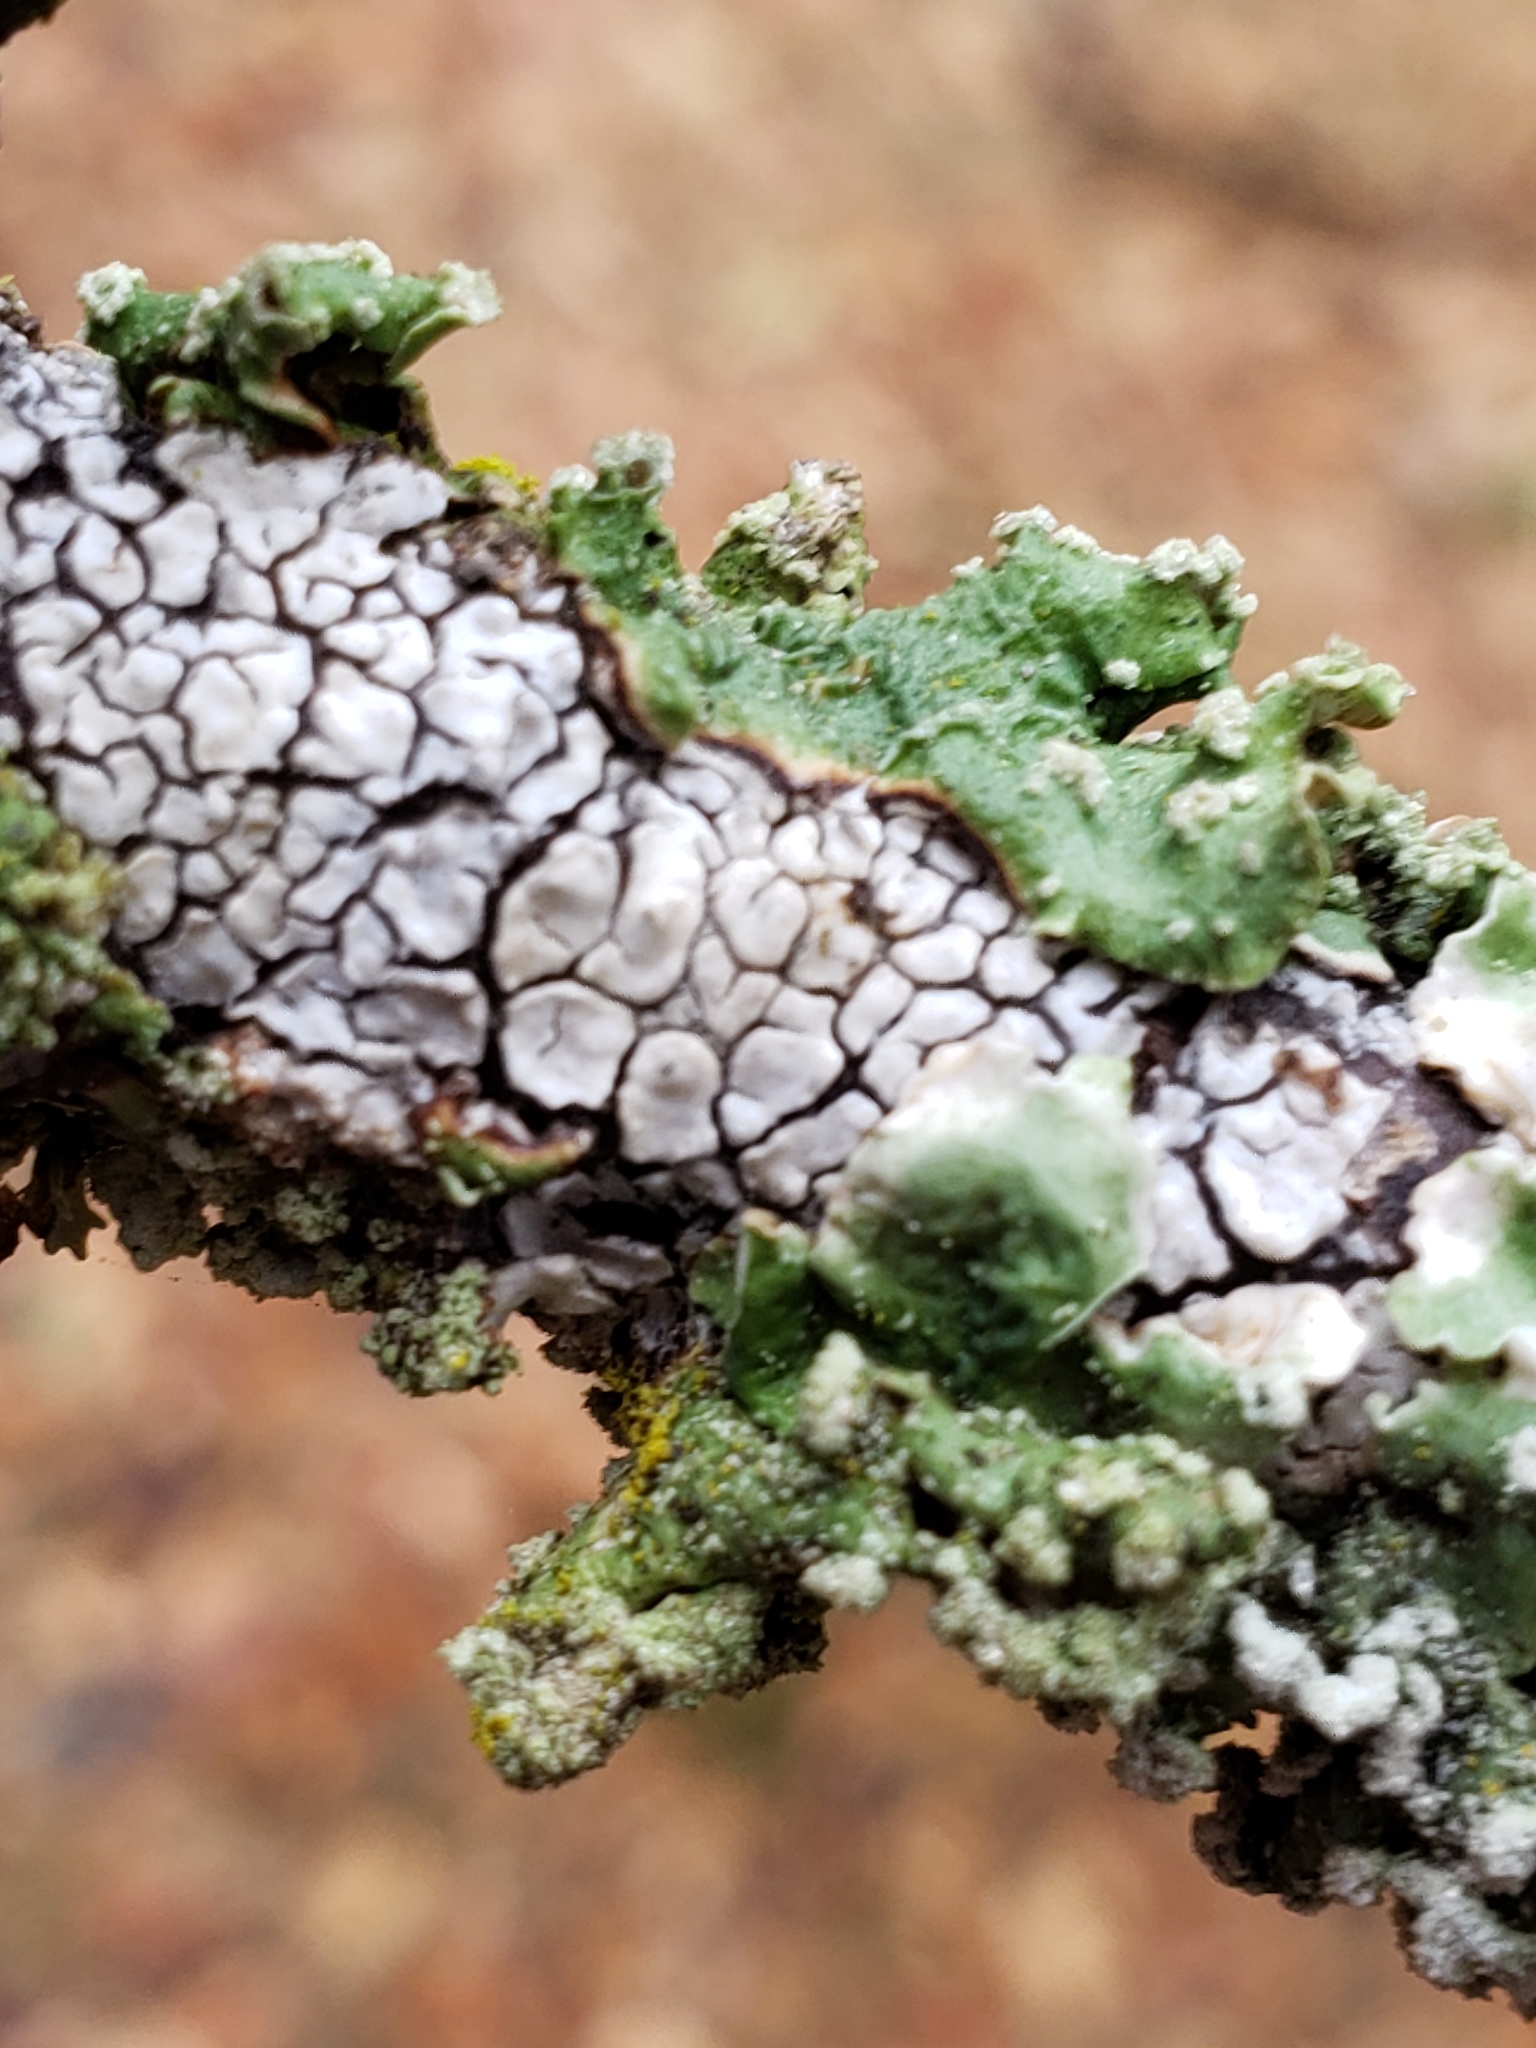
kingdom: Fungi
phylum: Basidiomycota
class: Agaricomycetes
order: Russulales
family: Stereaceae
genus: Xylobolus
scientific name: Xylobolus frustulatus
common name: Ceramic parchment
